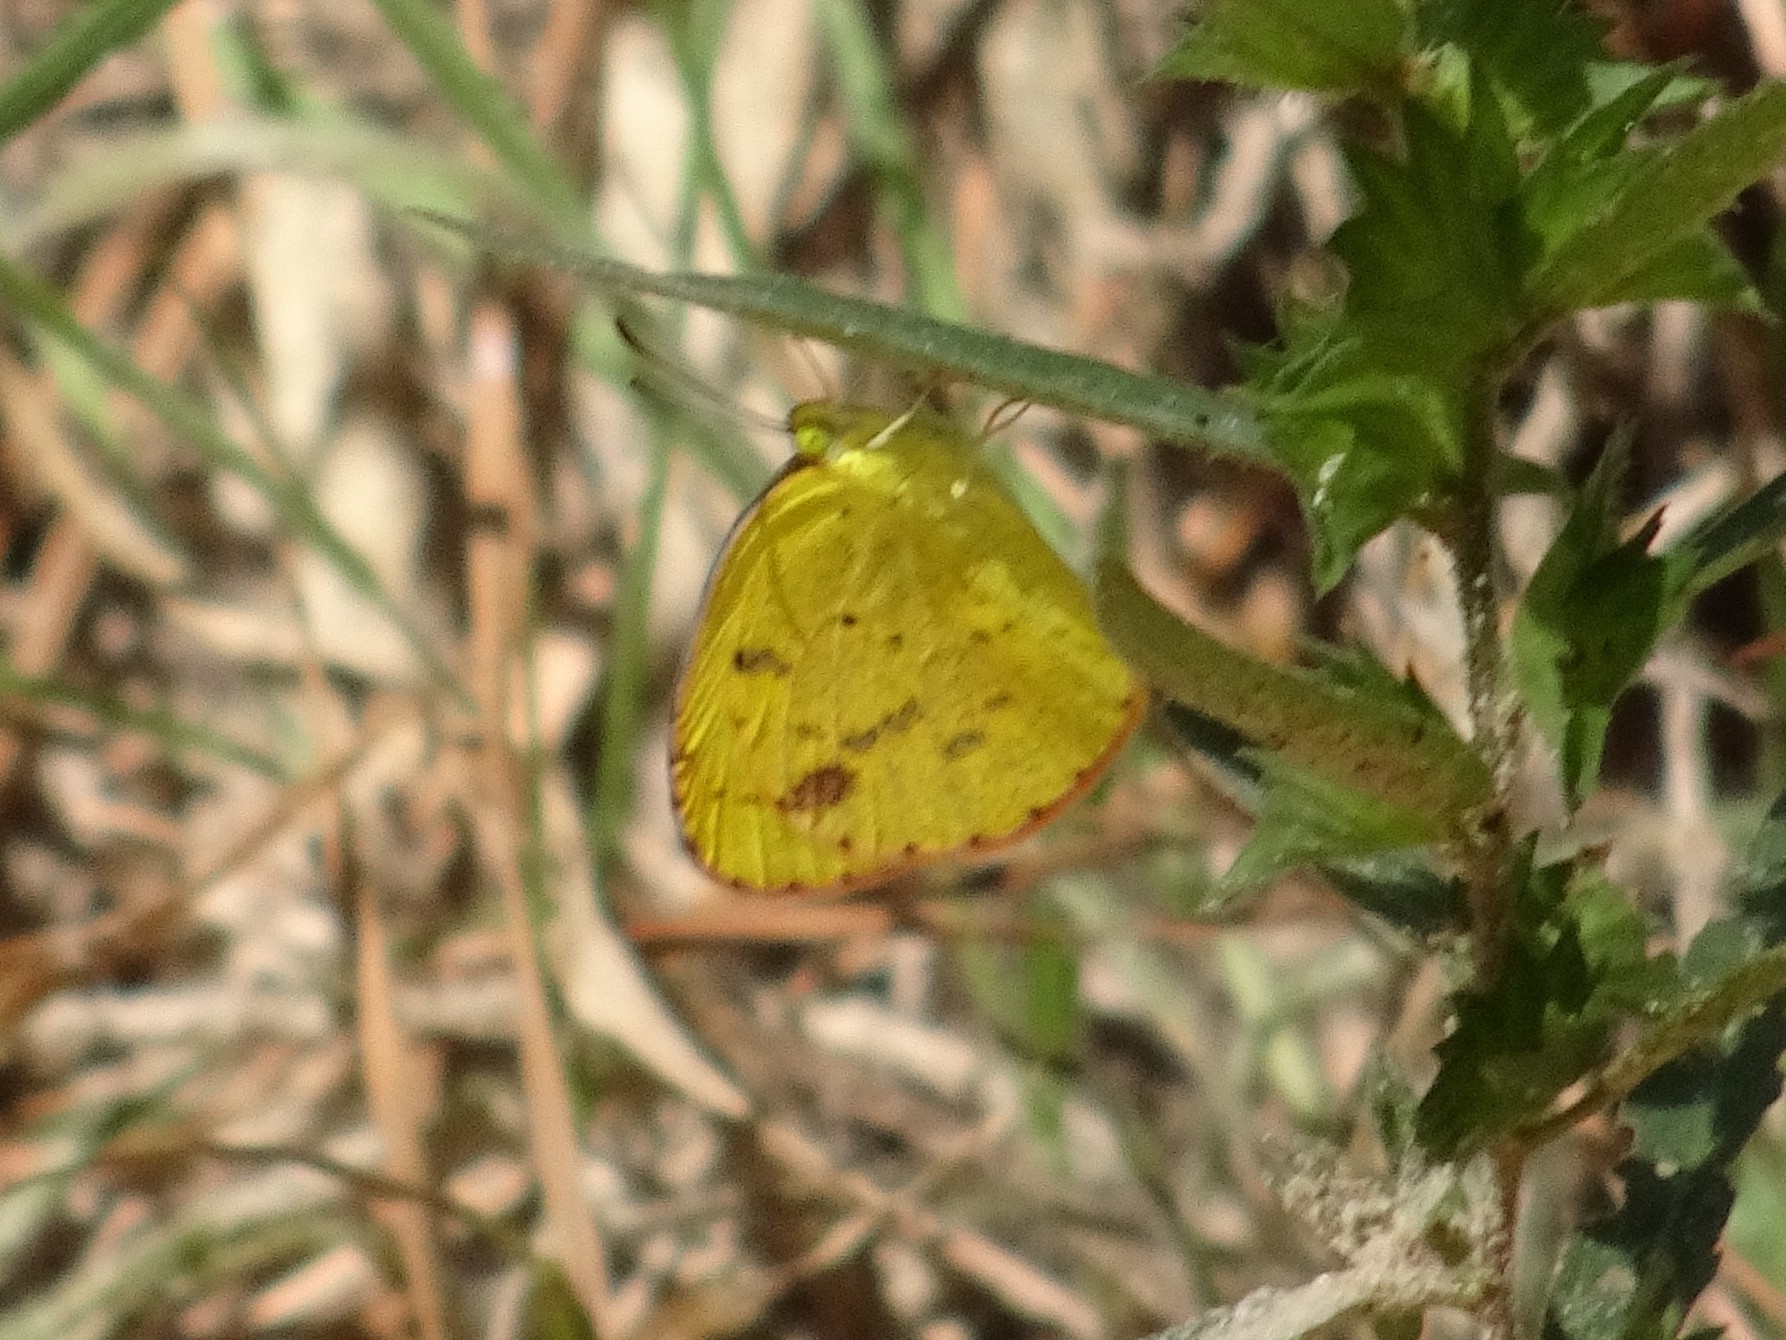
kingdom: Animalia
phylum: Arthropoda
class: Insecta
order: Lepidoptera
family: Pieridae
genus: Pyrisitia
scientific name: Pyrisitia lisa
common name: Little yellow
